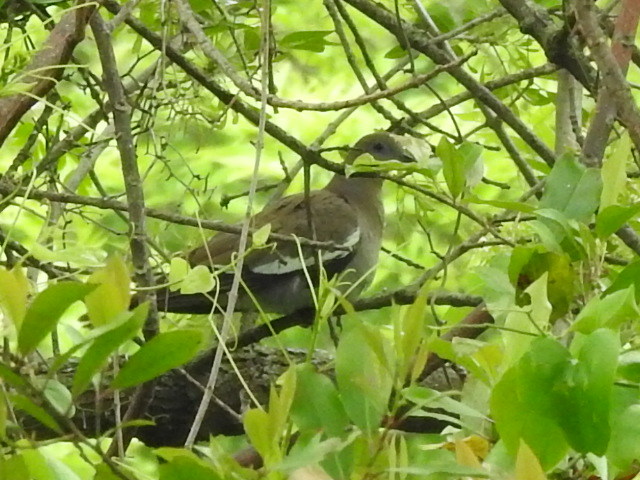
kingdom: Animalia
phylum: Chordata
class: Aves
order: Columbiformes
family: Columbidae
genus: Zenaida
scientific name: Zenaida asiatica
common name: White-winged dove
